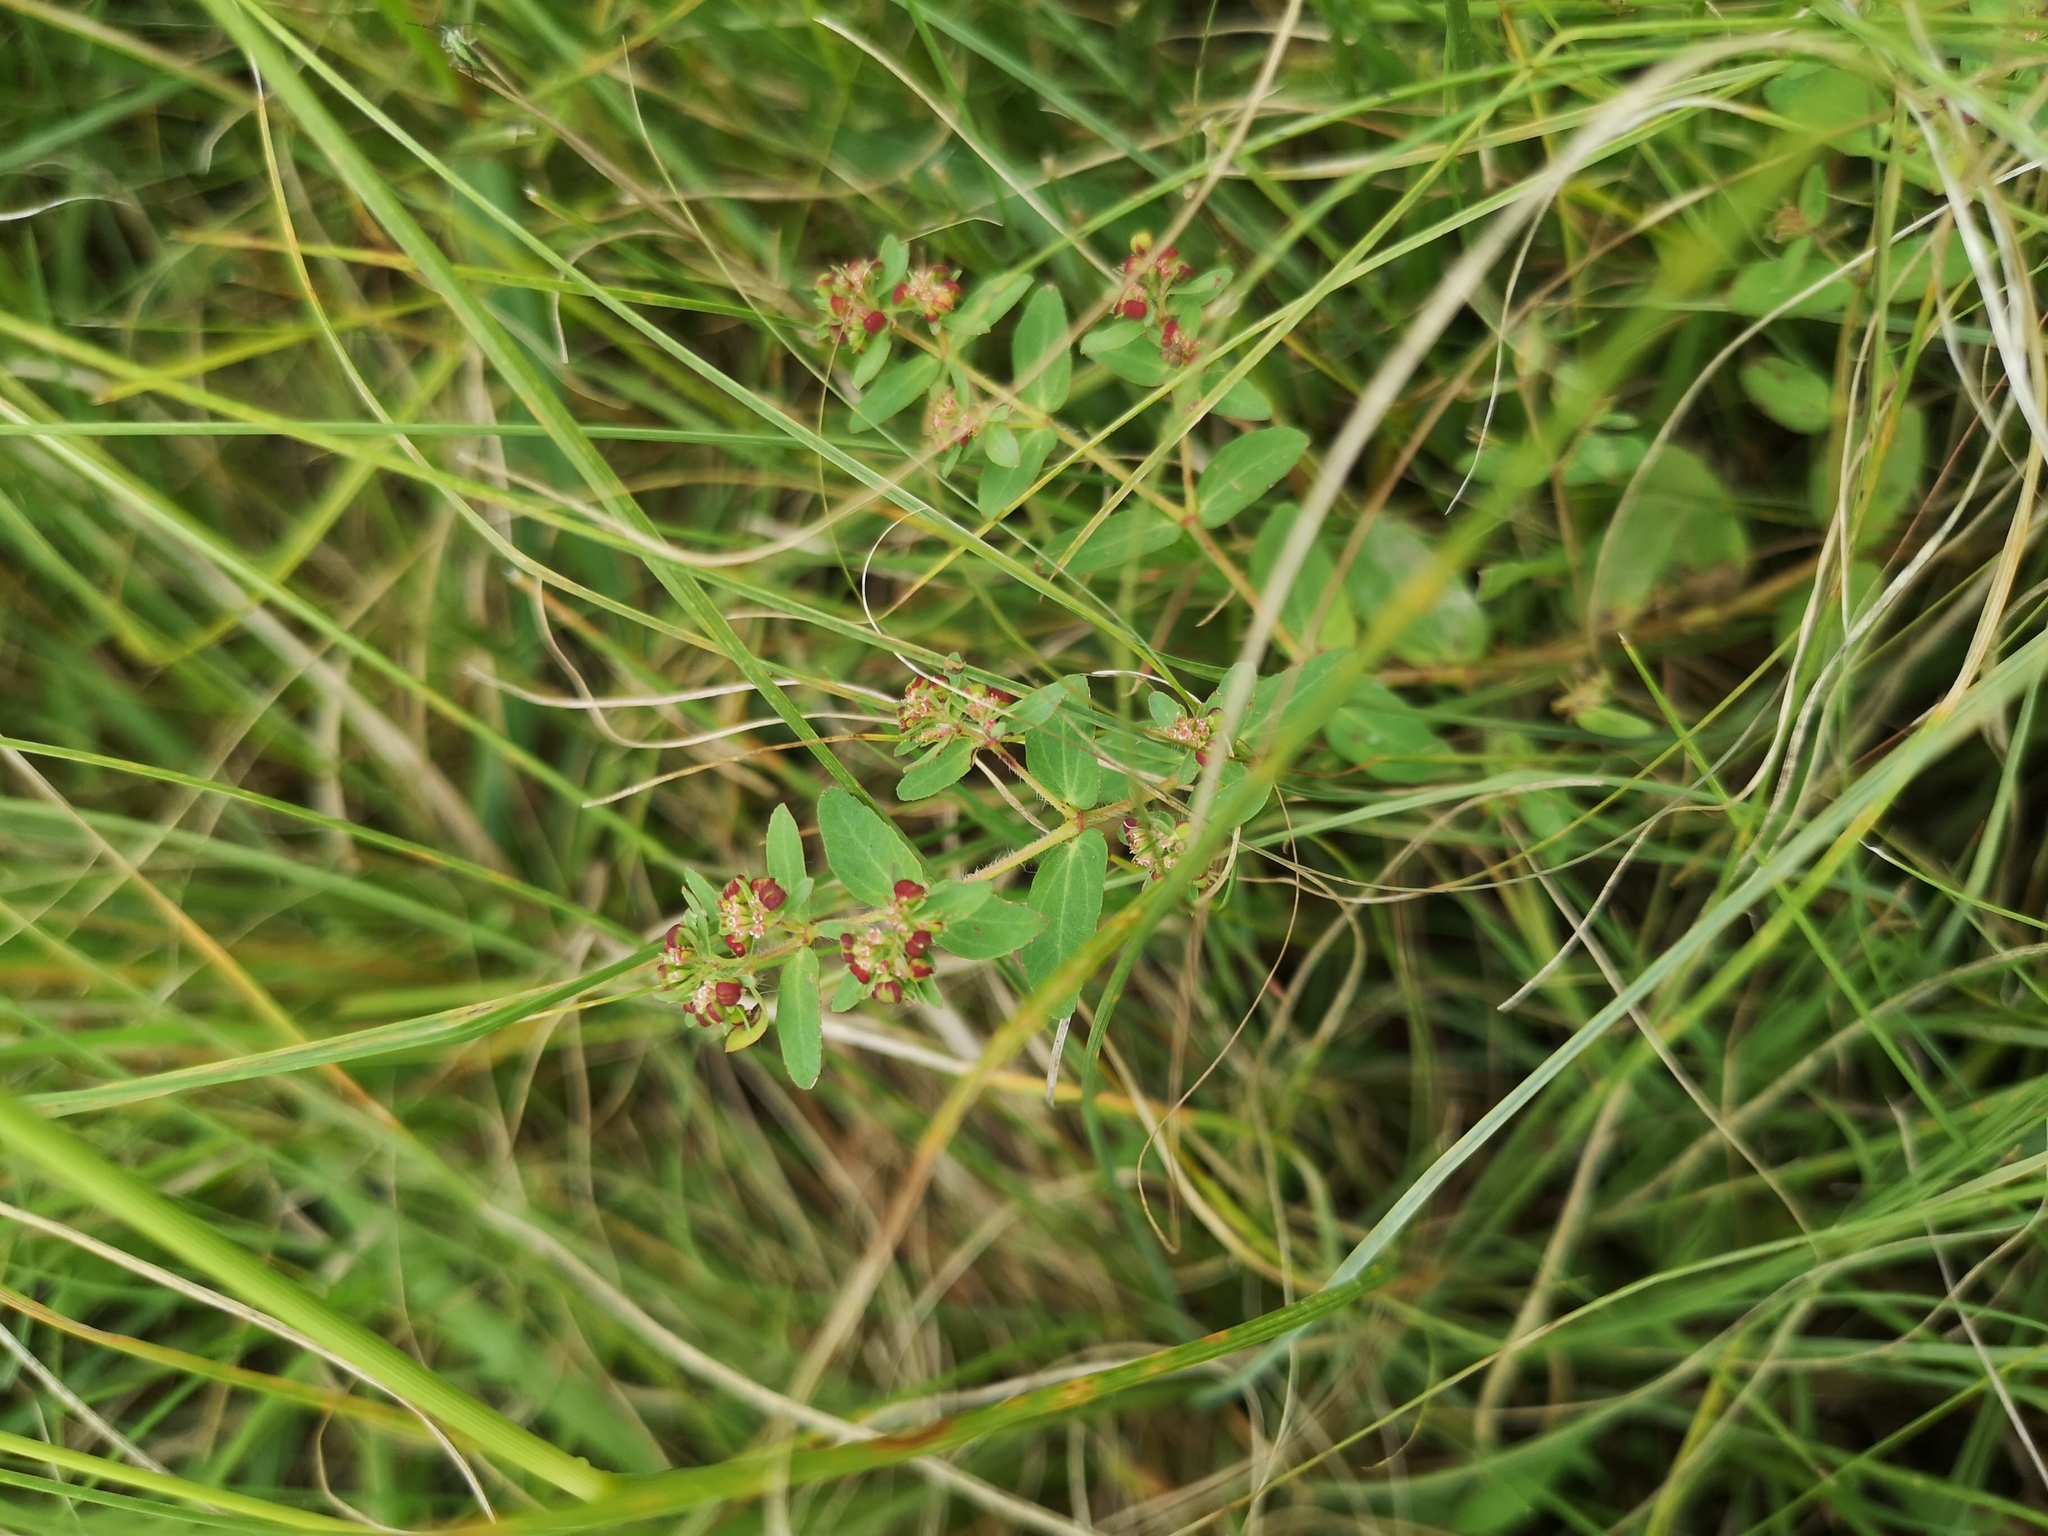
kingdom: Plantae
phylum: Tracheophyta
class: Magnoliopsida
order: Malpighiales
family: Euphorbiaceae
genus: Euphorbia
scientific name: Euphorbia hyssopifolia
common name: Hyssopleaf sandmat
